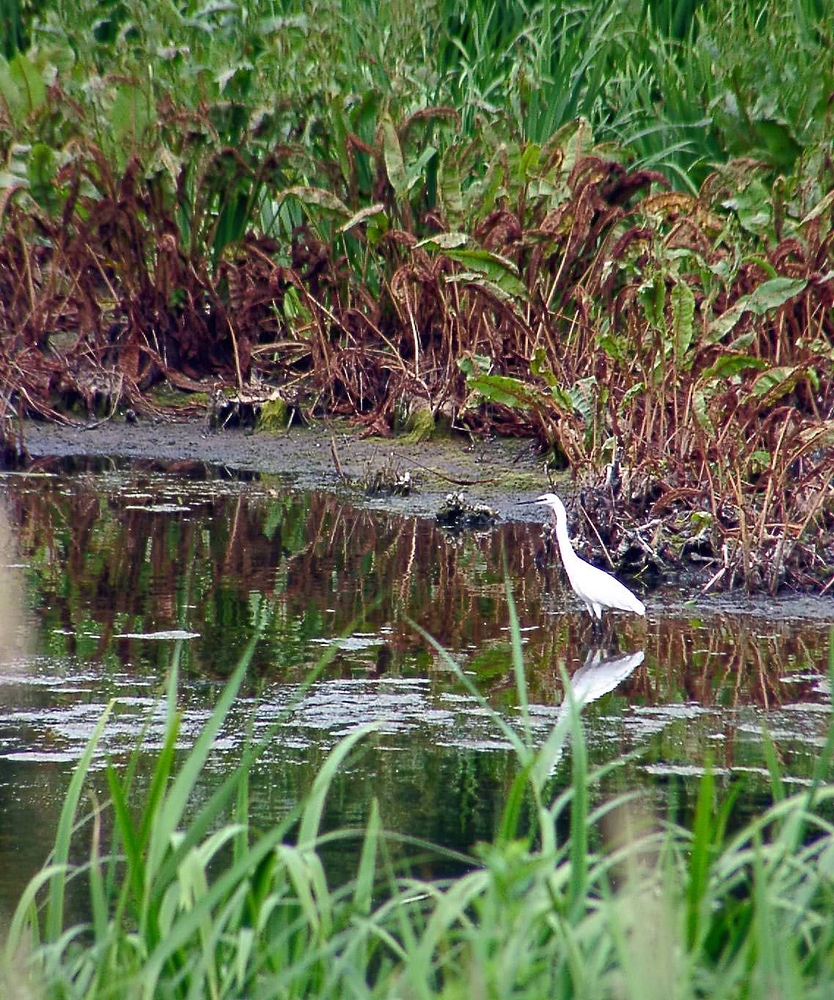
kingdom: Animalia
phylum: Chordata
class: Aves
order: Pelecaniformes
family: Ardeidae
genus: Egretta
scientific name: Egretta garzetta
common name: Little egret
